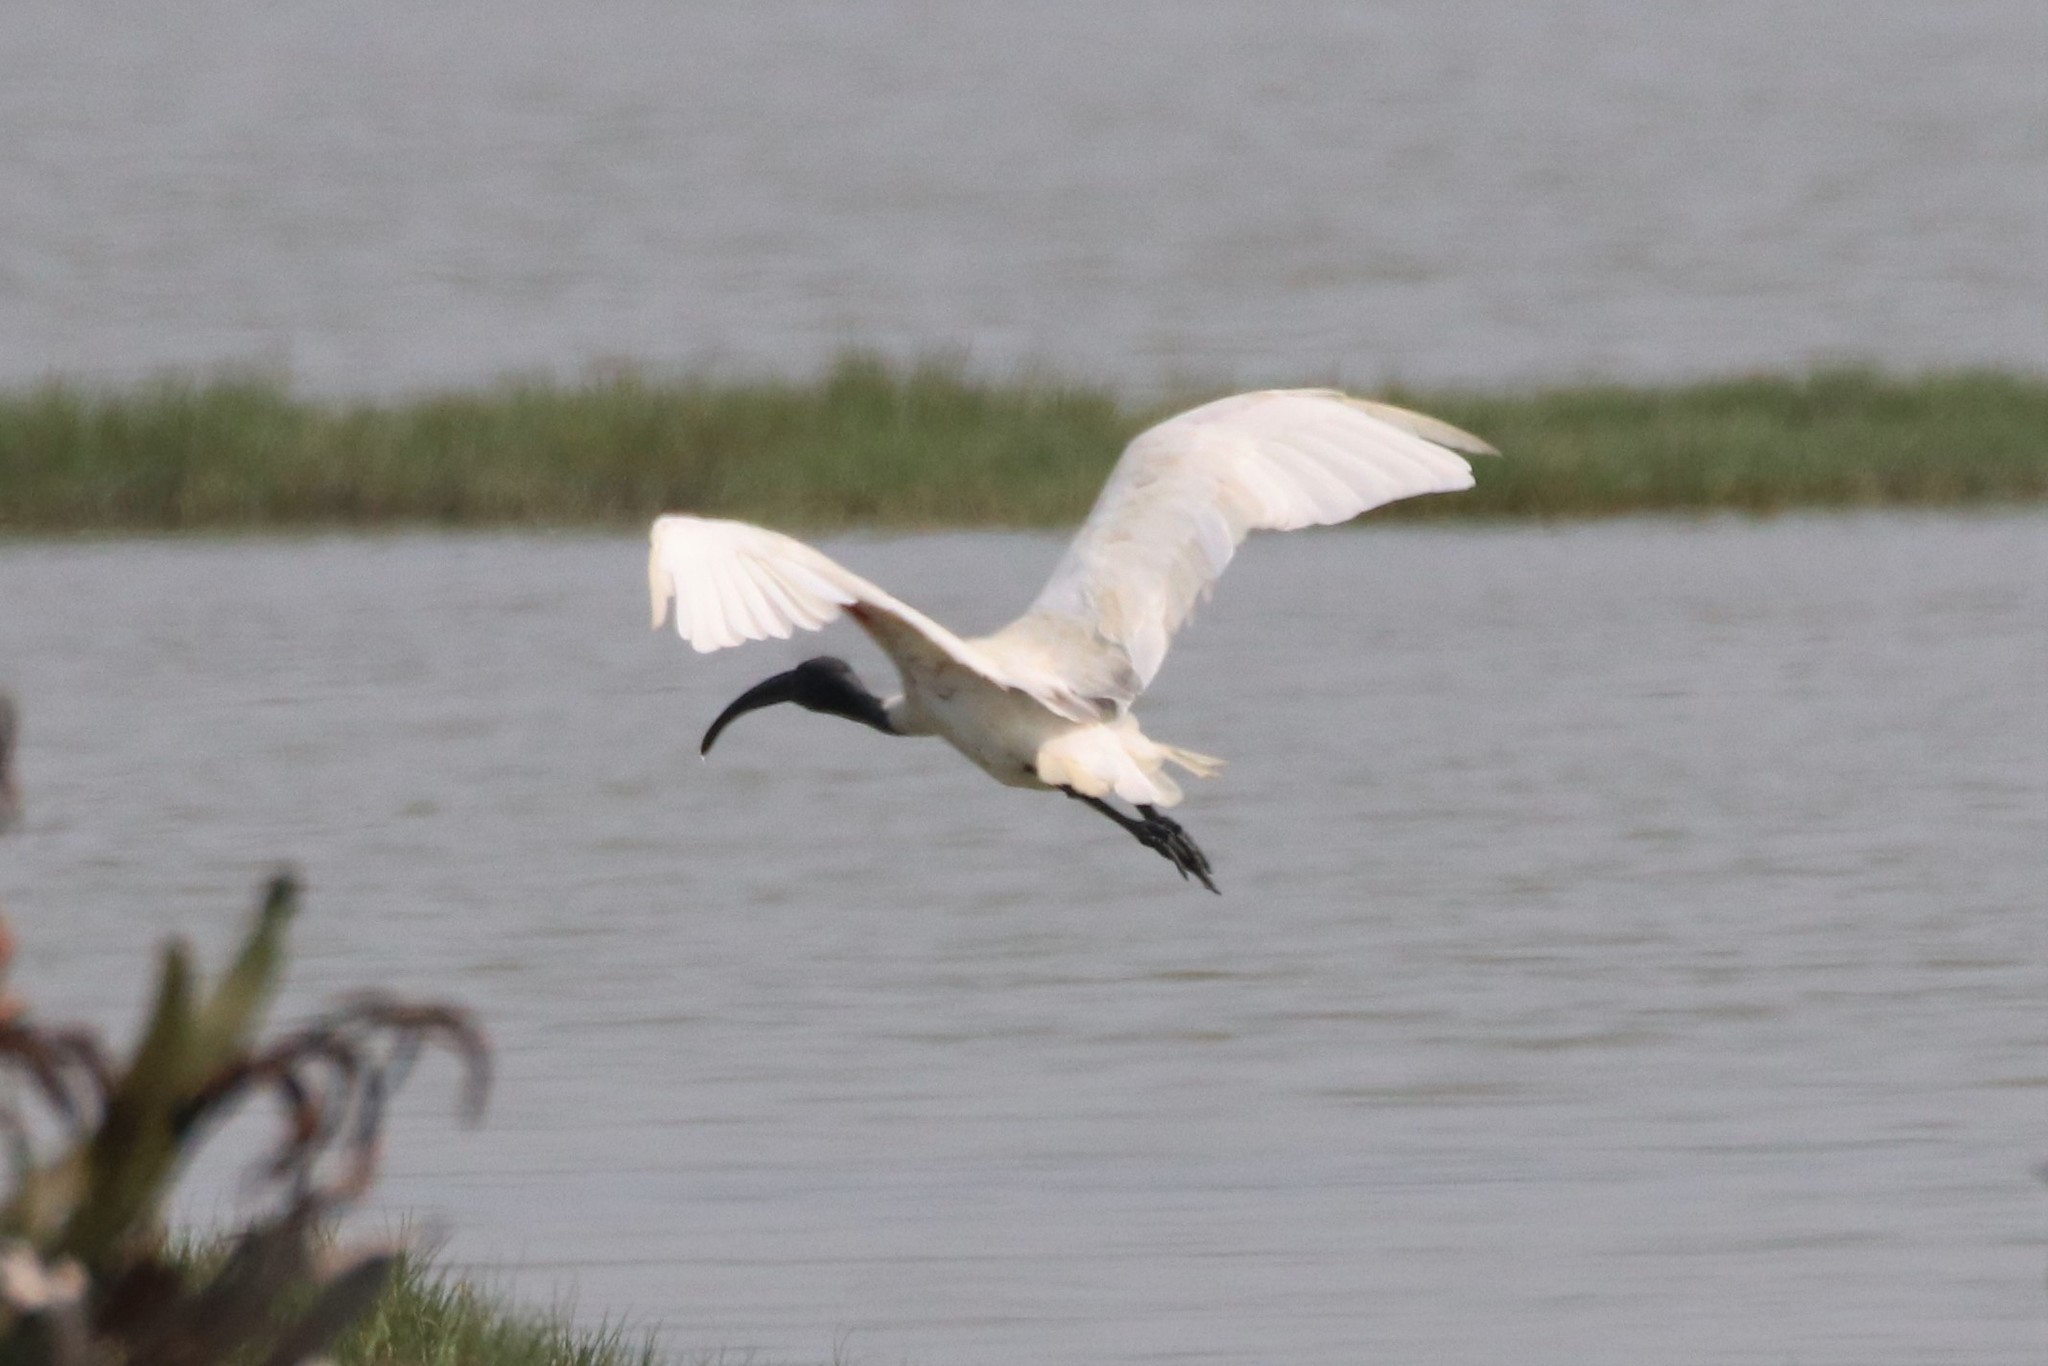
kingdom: Animalia
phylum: Chordata
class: Aves
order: Pelecaniformes
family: Threskiornithidae
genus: Threskiornis
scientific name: Threskiornis melanocephalus
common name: Black-headed ibis
